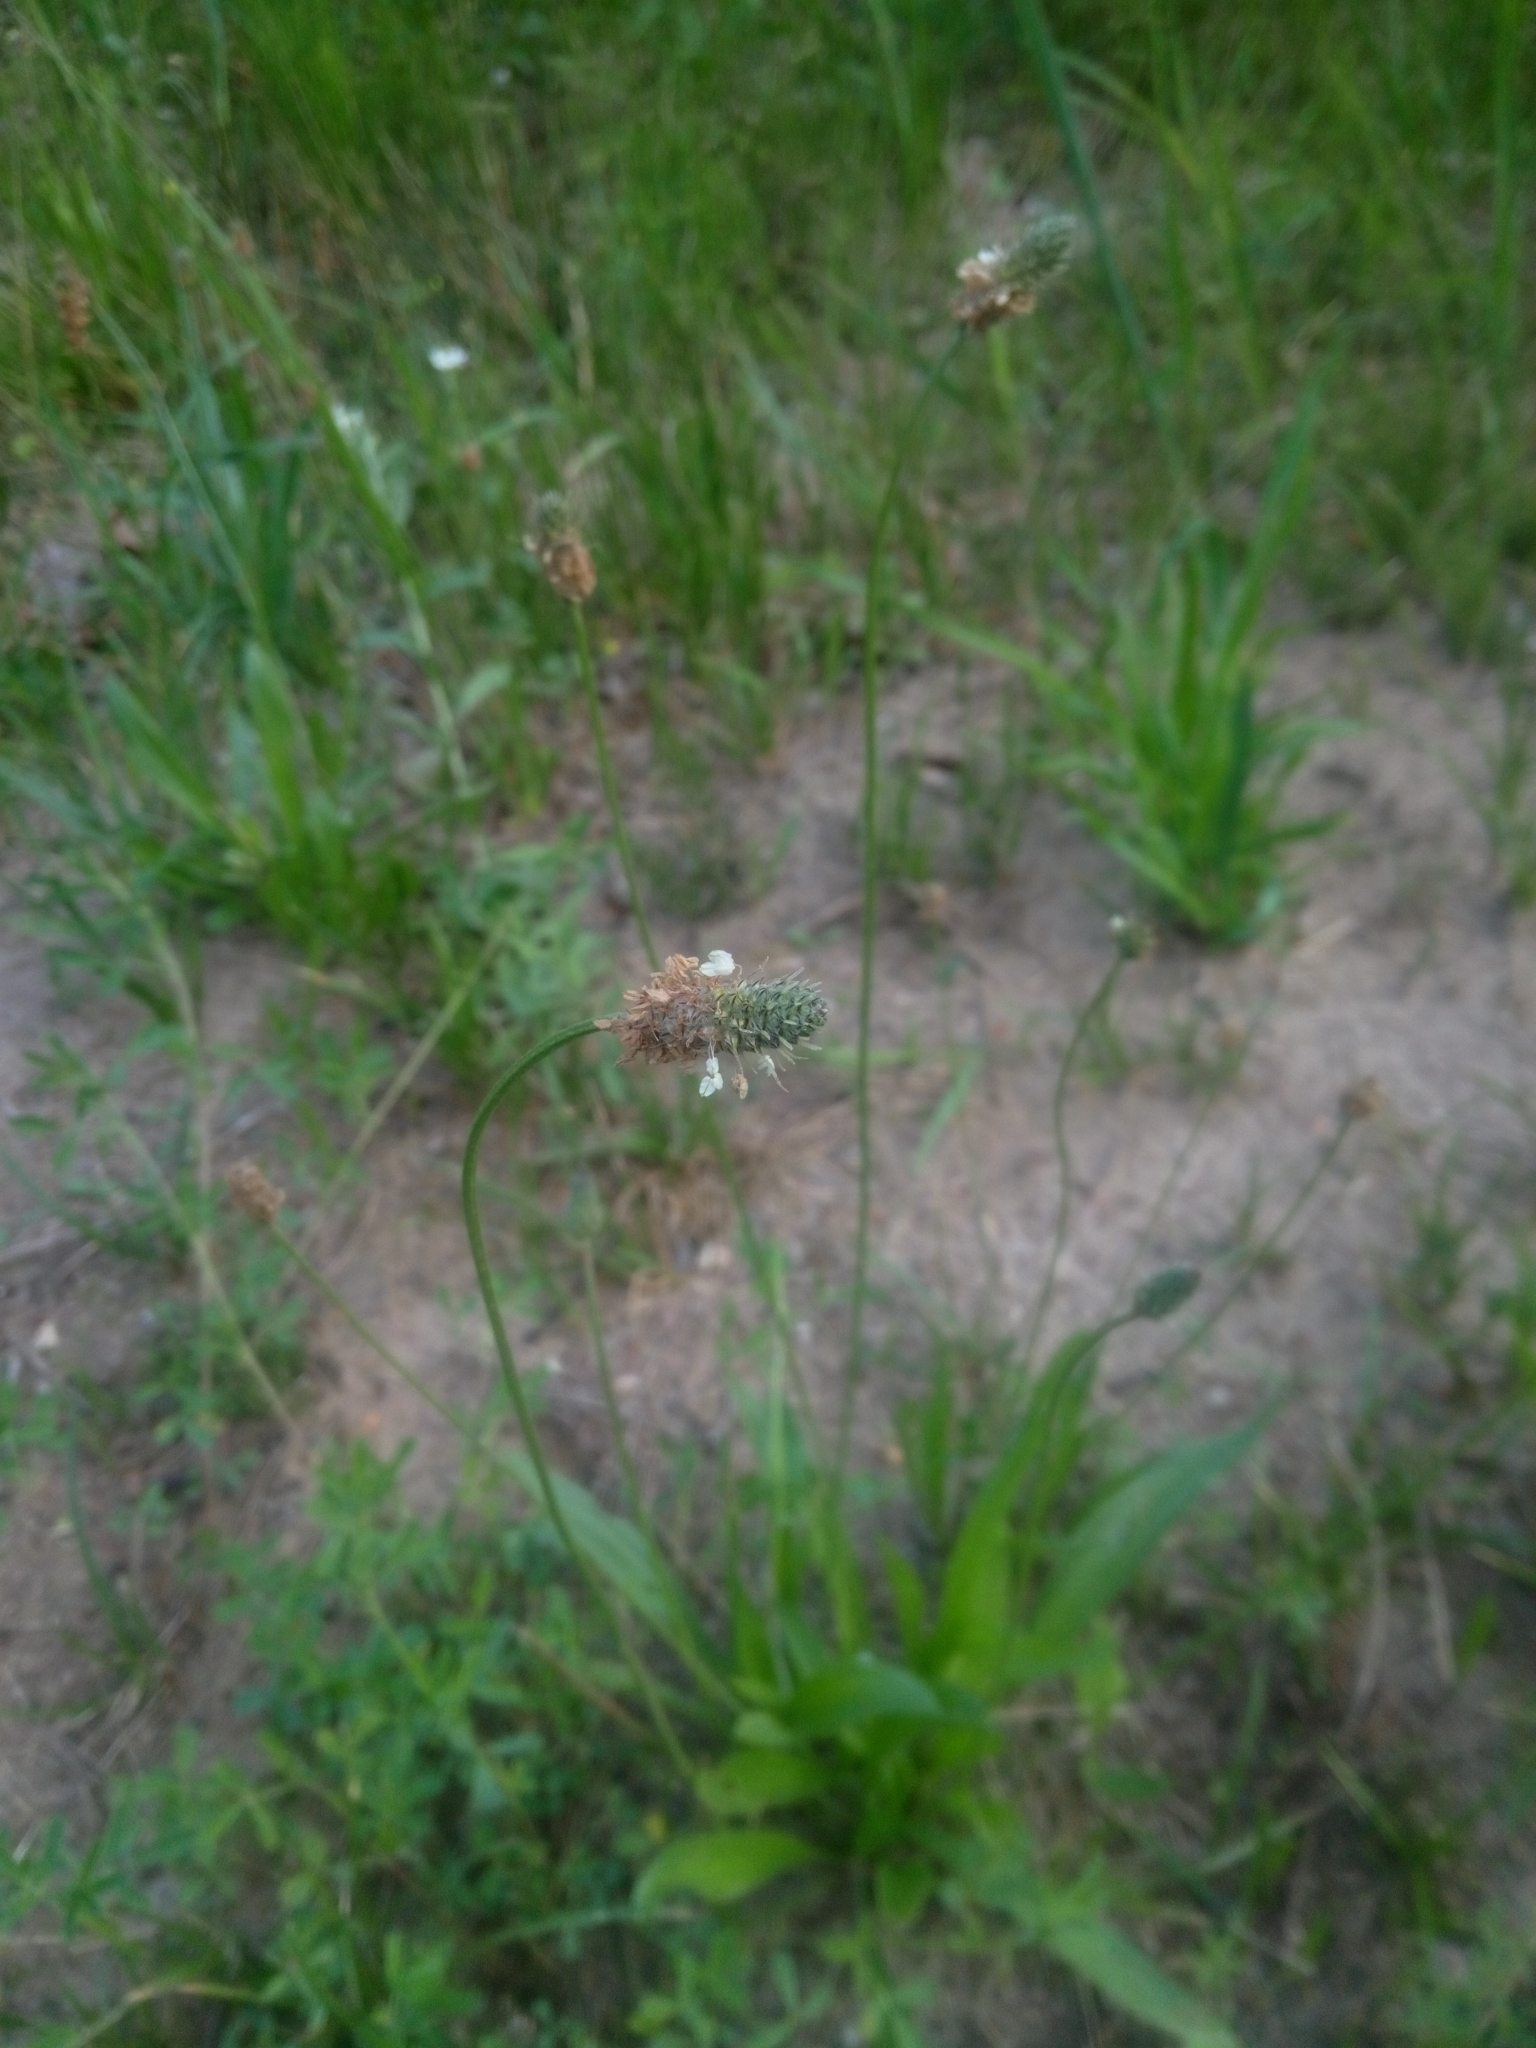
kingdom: Plantae
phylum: Tracheophyta
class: Magnoliopsida
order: Lamiales
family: Plantaginaceae
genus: Plantago
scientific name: Plantago lanceolata
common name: Ribwort plantain
